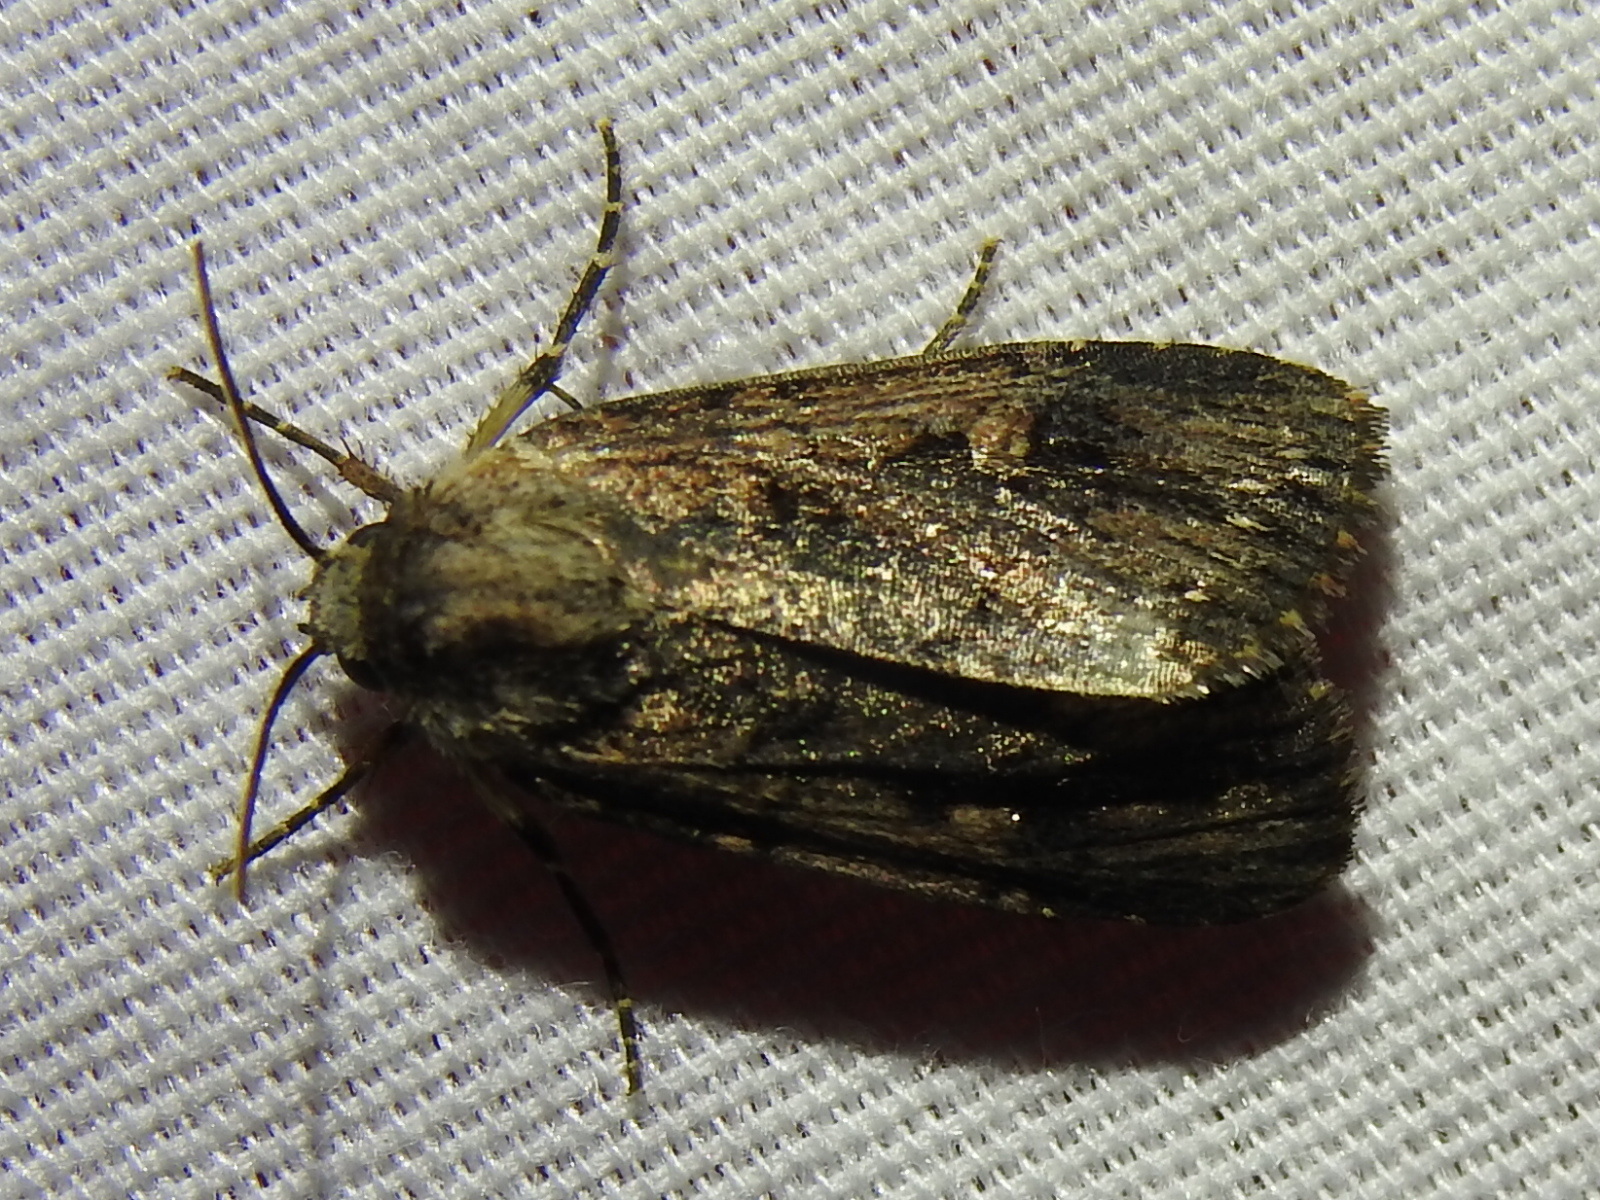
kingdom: Animalia
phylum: Arthropoda
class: Insecta
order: Lepidoptera
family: Noctuidae
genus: Feltia
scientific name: Feltia subterranea
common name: Granulate cutworm
